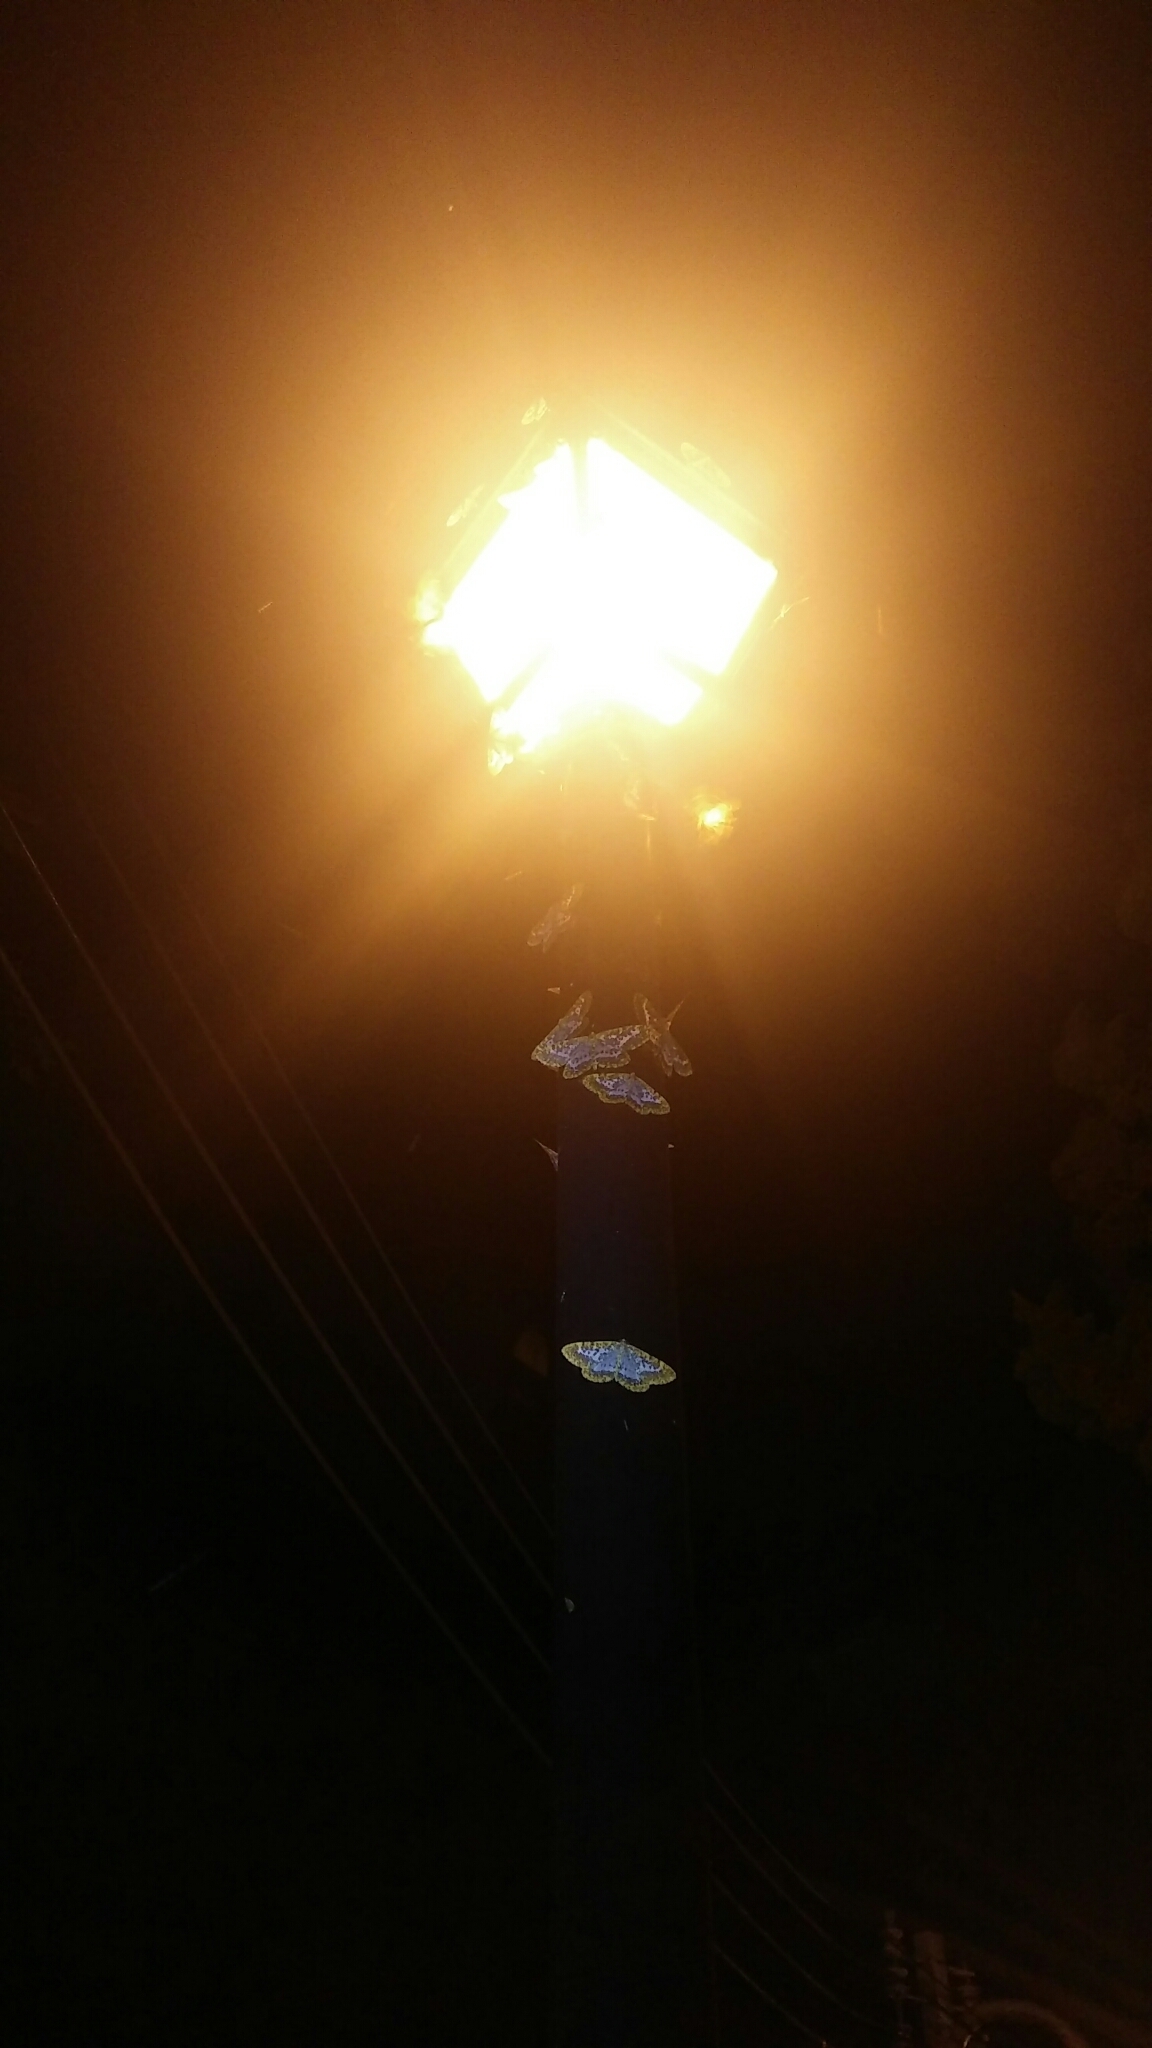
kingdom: Animalia
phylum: Arthropoda
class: Insecta
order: Lepidoptera
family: Geometridae
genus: Obeidia
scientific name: Obeidia Epobeidia lucifera
